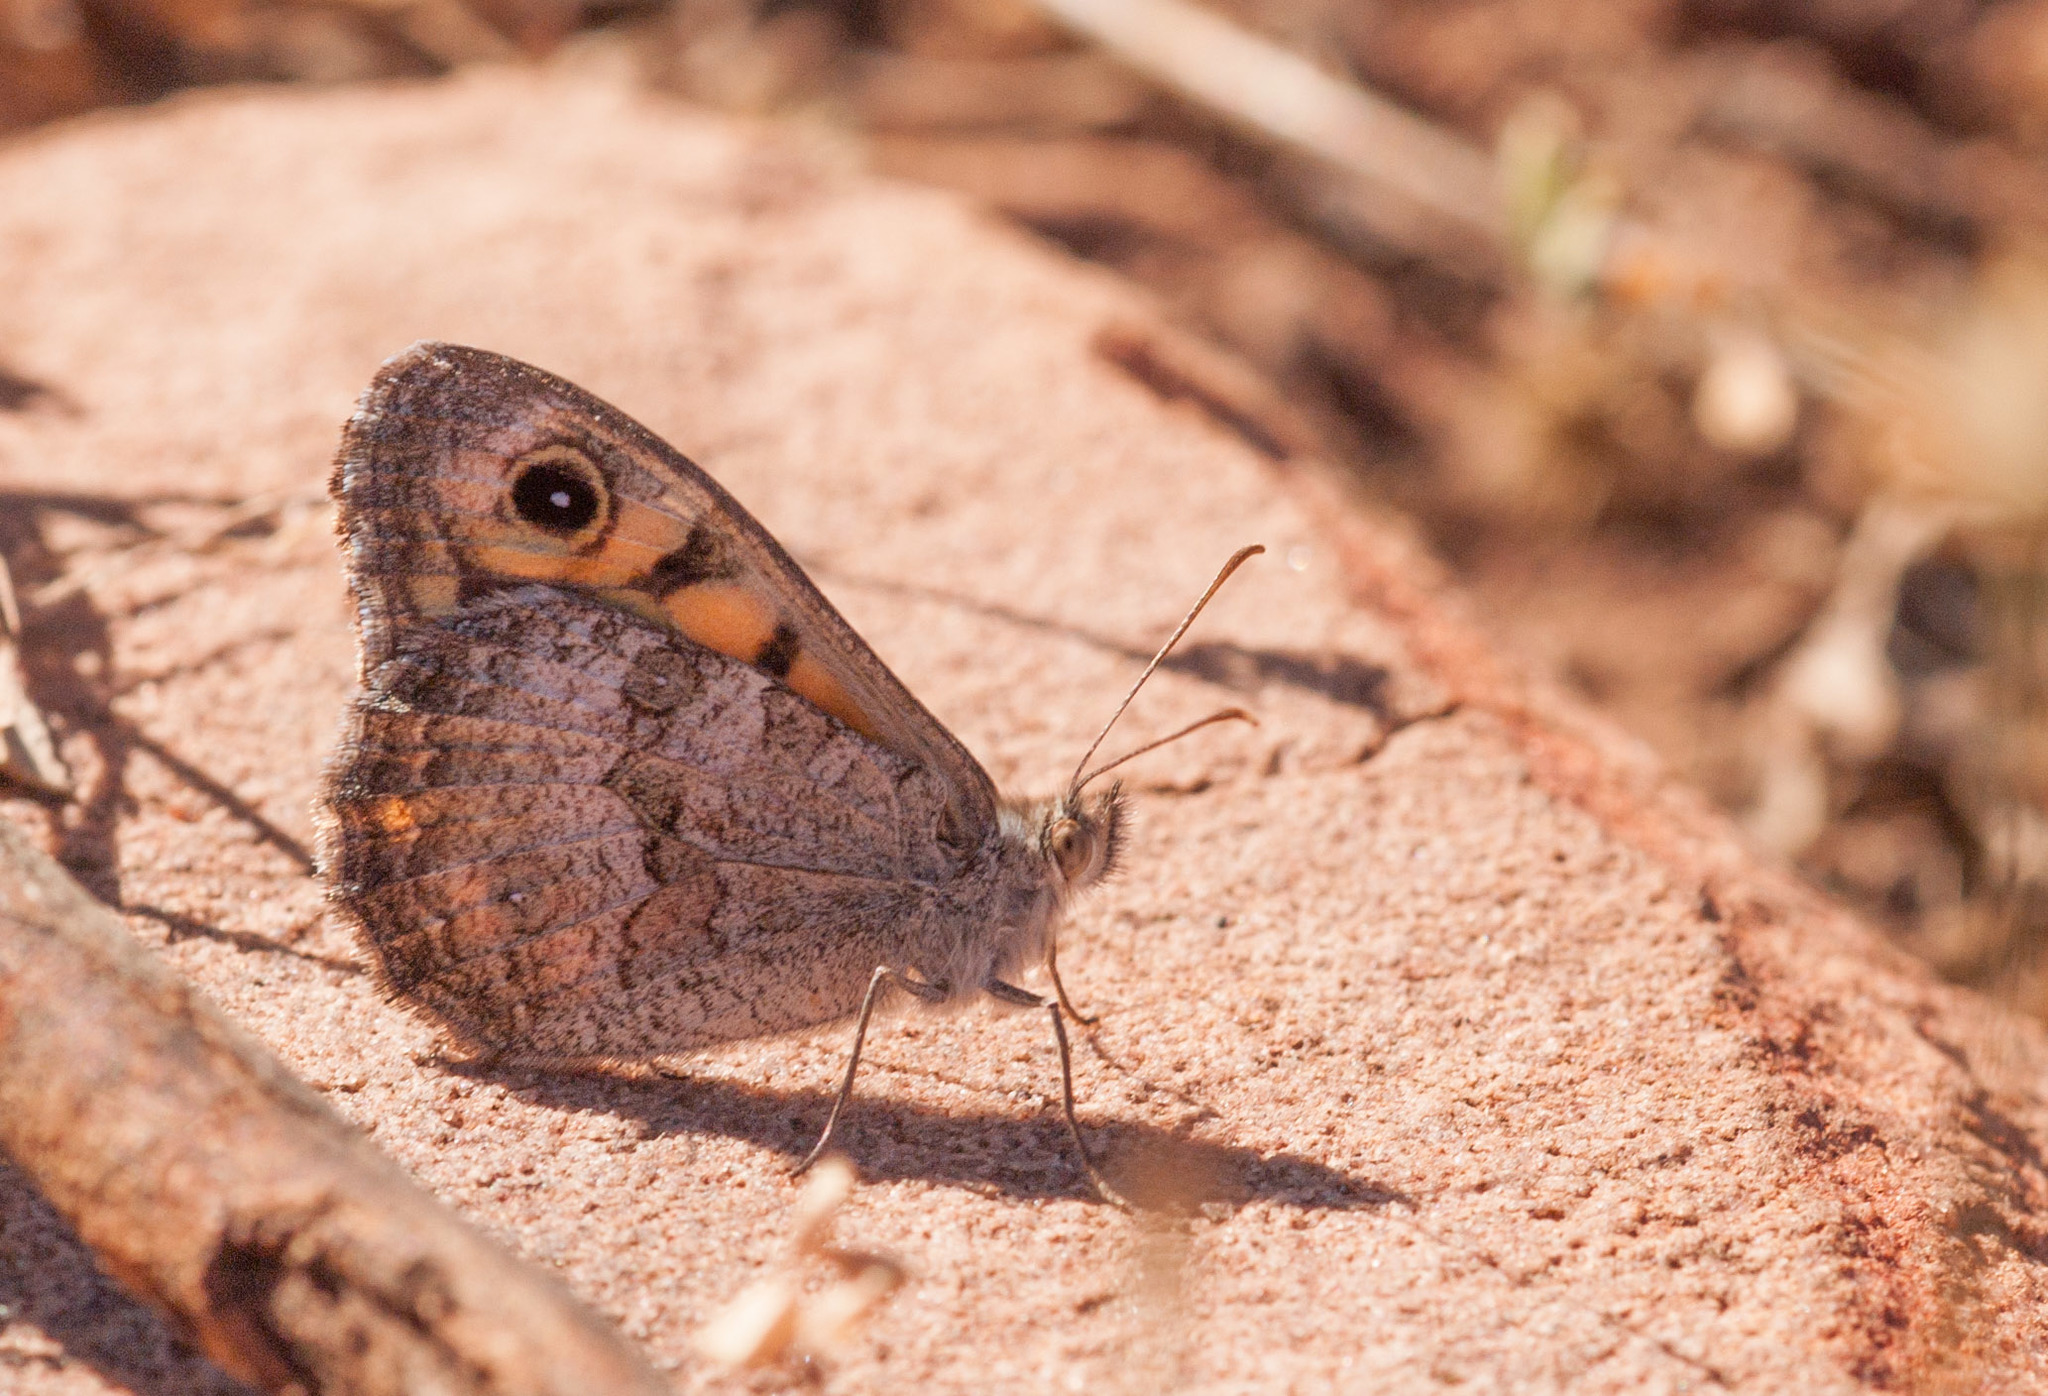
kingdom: Animalia
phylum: Arthropoda
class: Insecta
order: Lepidoptera
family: Nymphalidae
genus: Junonia
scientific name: Junonia villida
